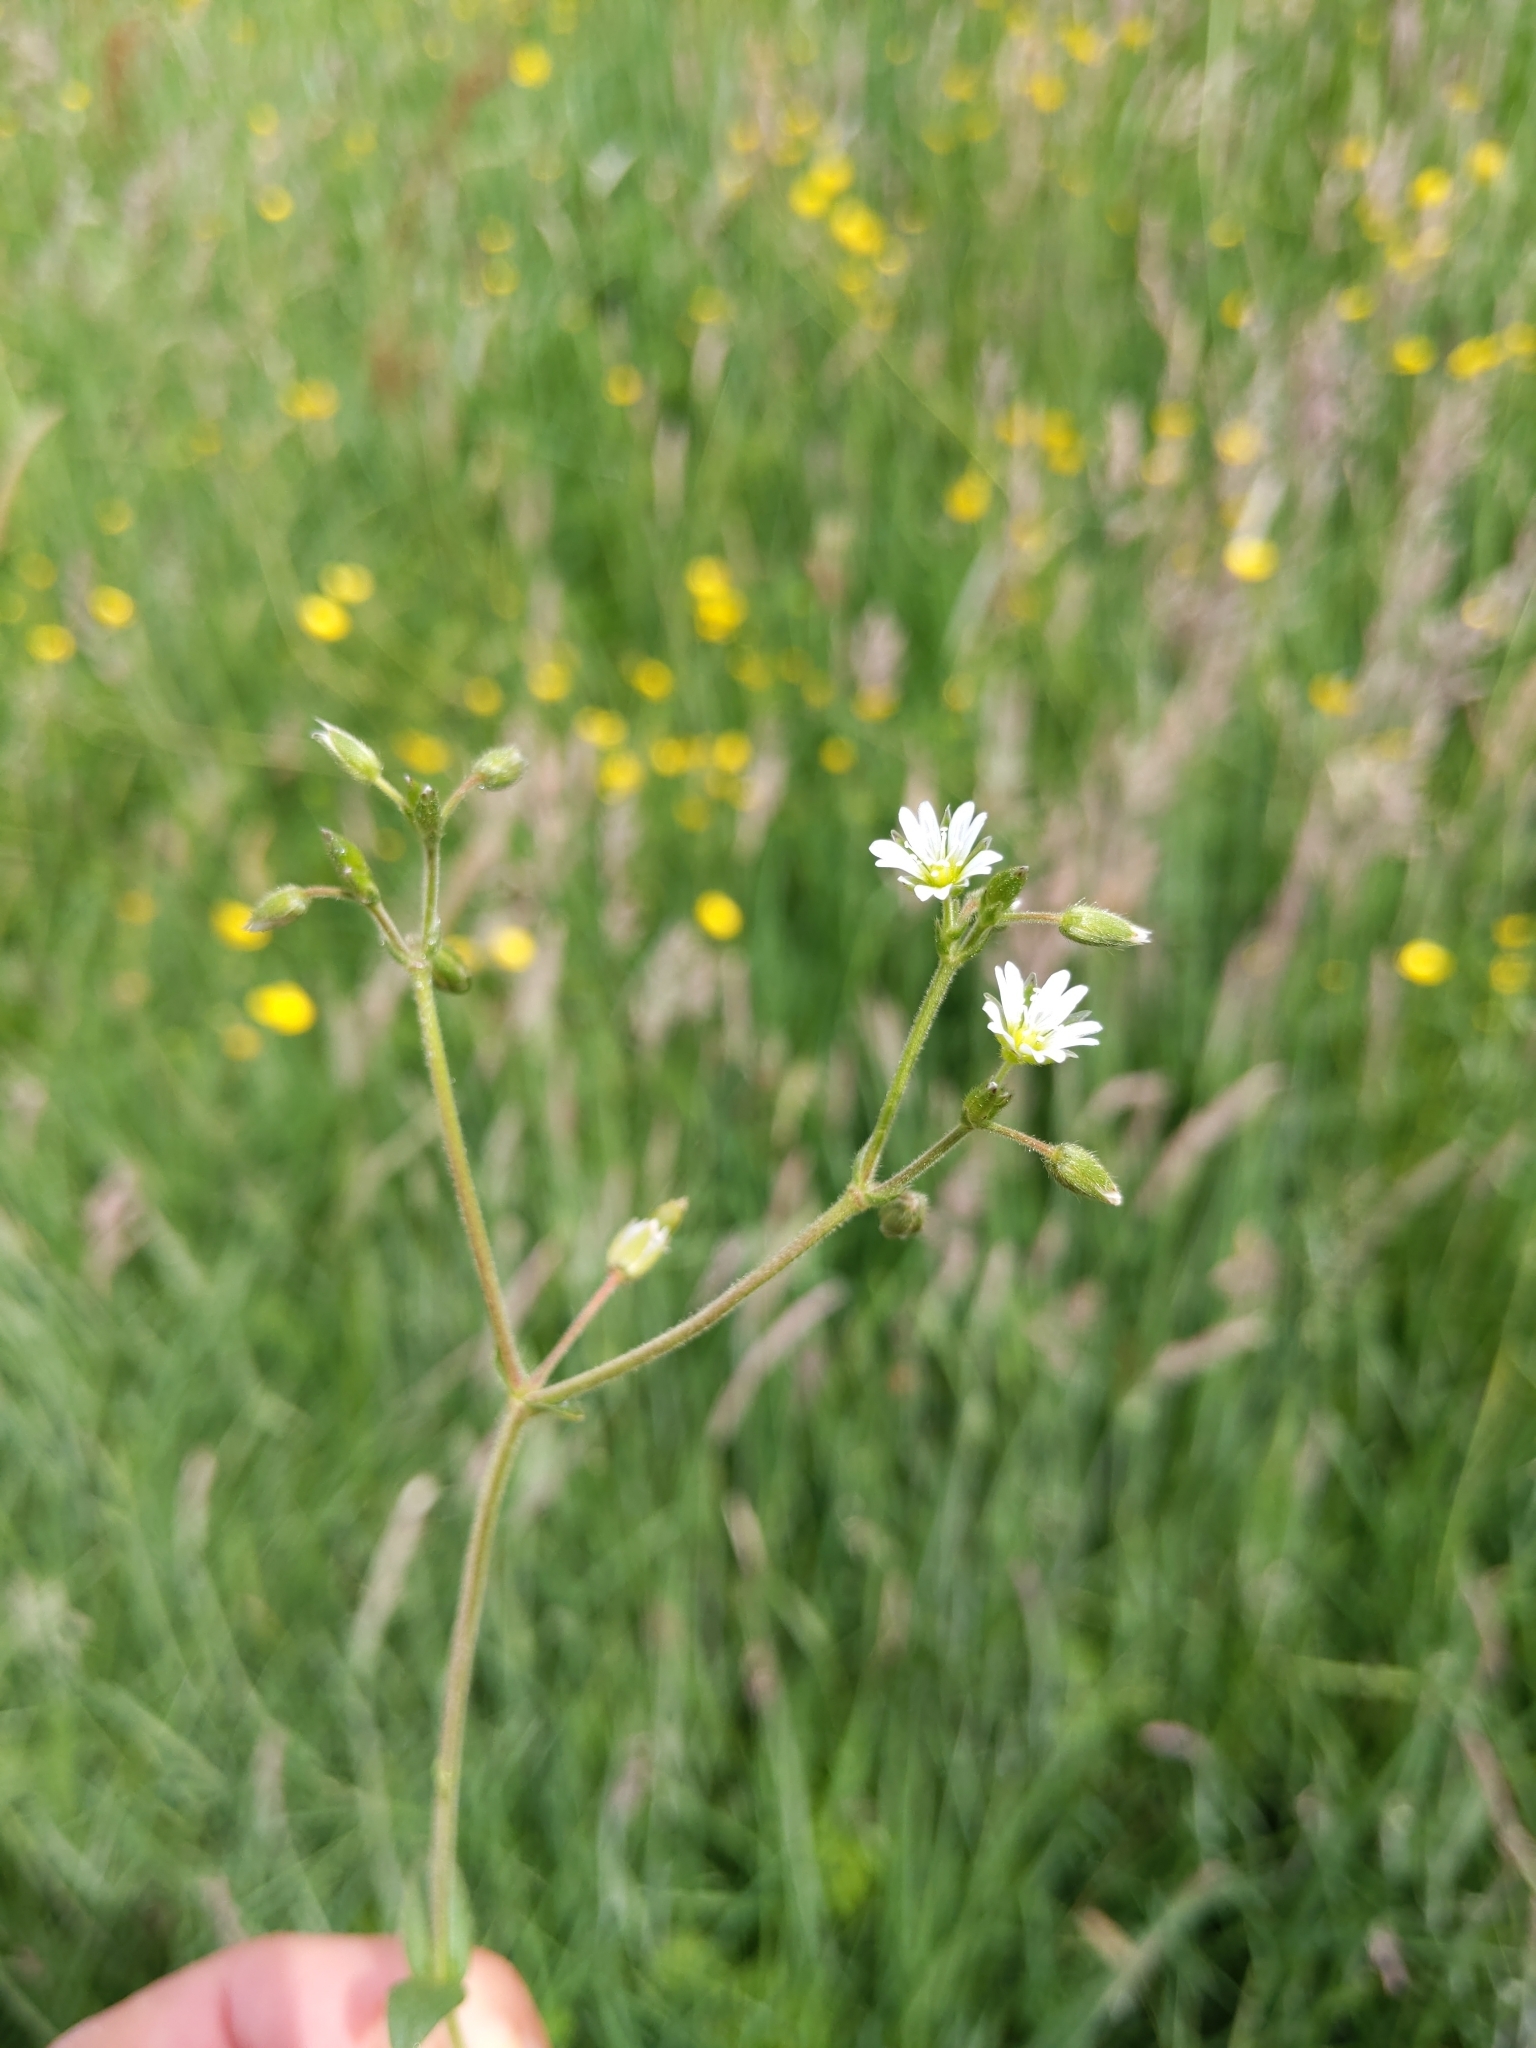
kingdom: Plantae
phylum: Tracheophyta
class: Magnoliopsida
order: Caryophyllales
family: Caryophyllaceae
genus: Cerastium
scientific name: Cerastium fontanum
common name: Common mouse-ear
